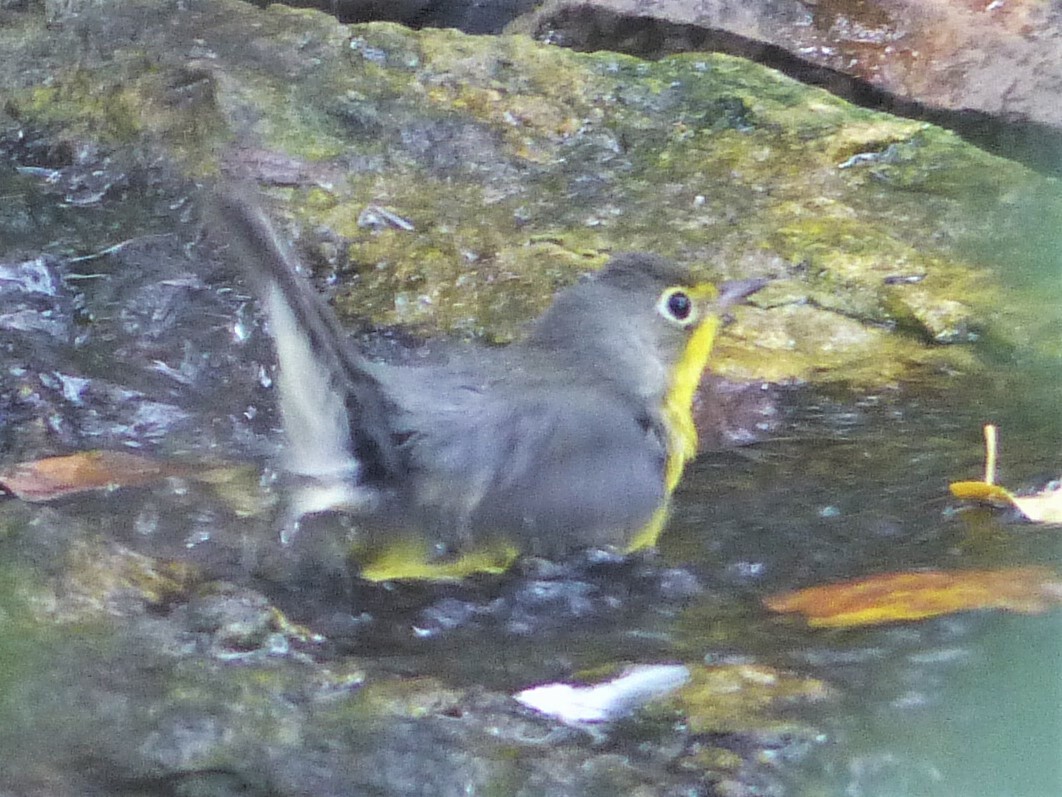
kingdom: Animalia
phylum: Chordata
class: Aves
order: Passeriformes
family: Parulidae
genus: Cardellina
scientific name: Cardellina canadensis
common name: Canada warbler
